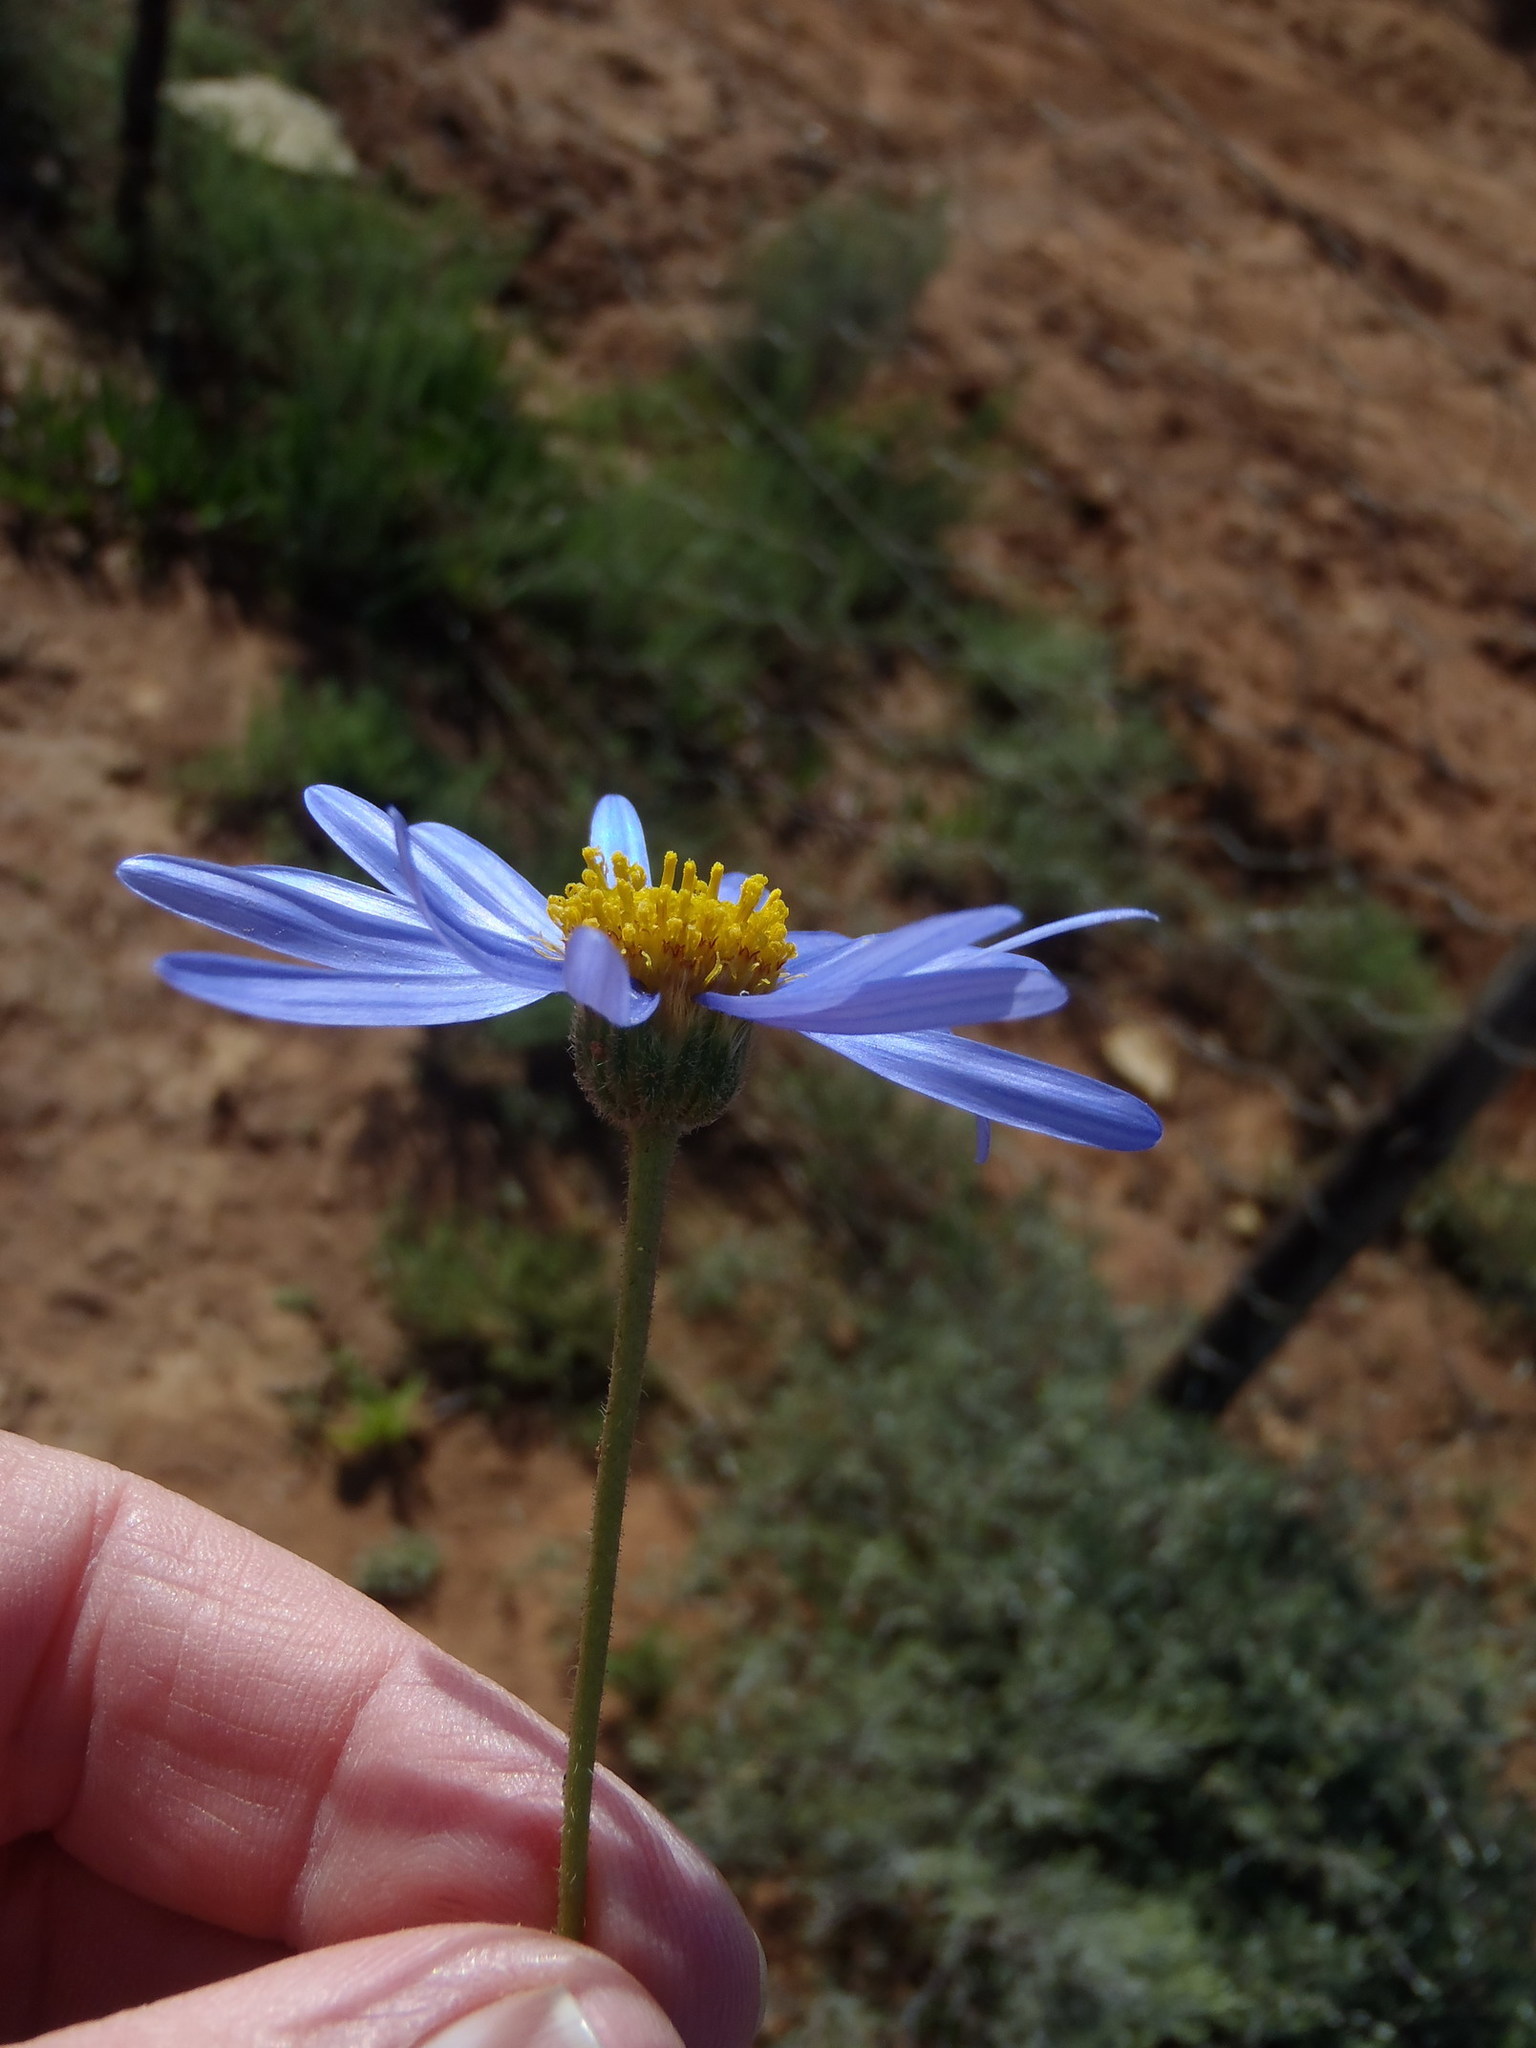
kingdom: Plantae
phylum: Tracheophyta
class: Magnoliopsida
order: Asterales
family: Asteraceae
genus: Felicia
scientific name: Felicia ovata
